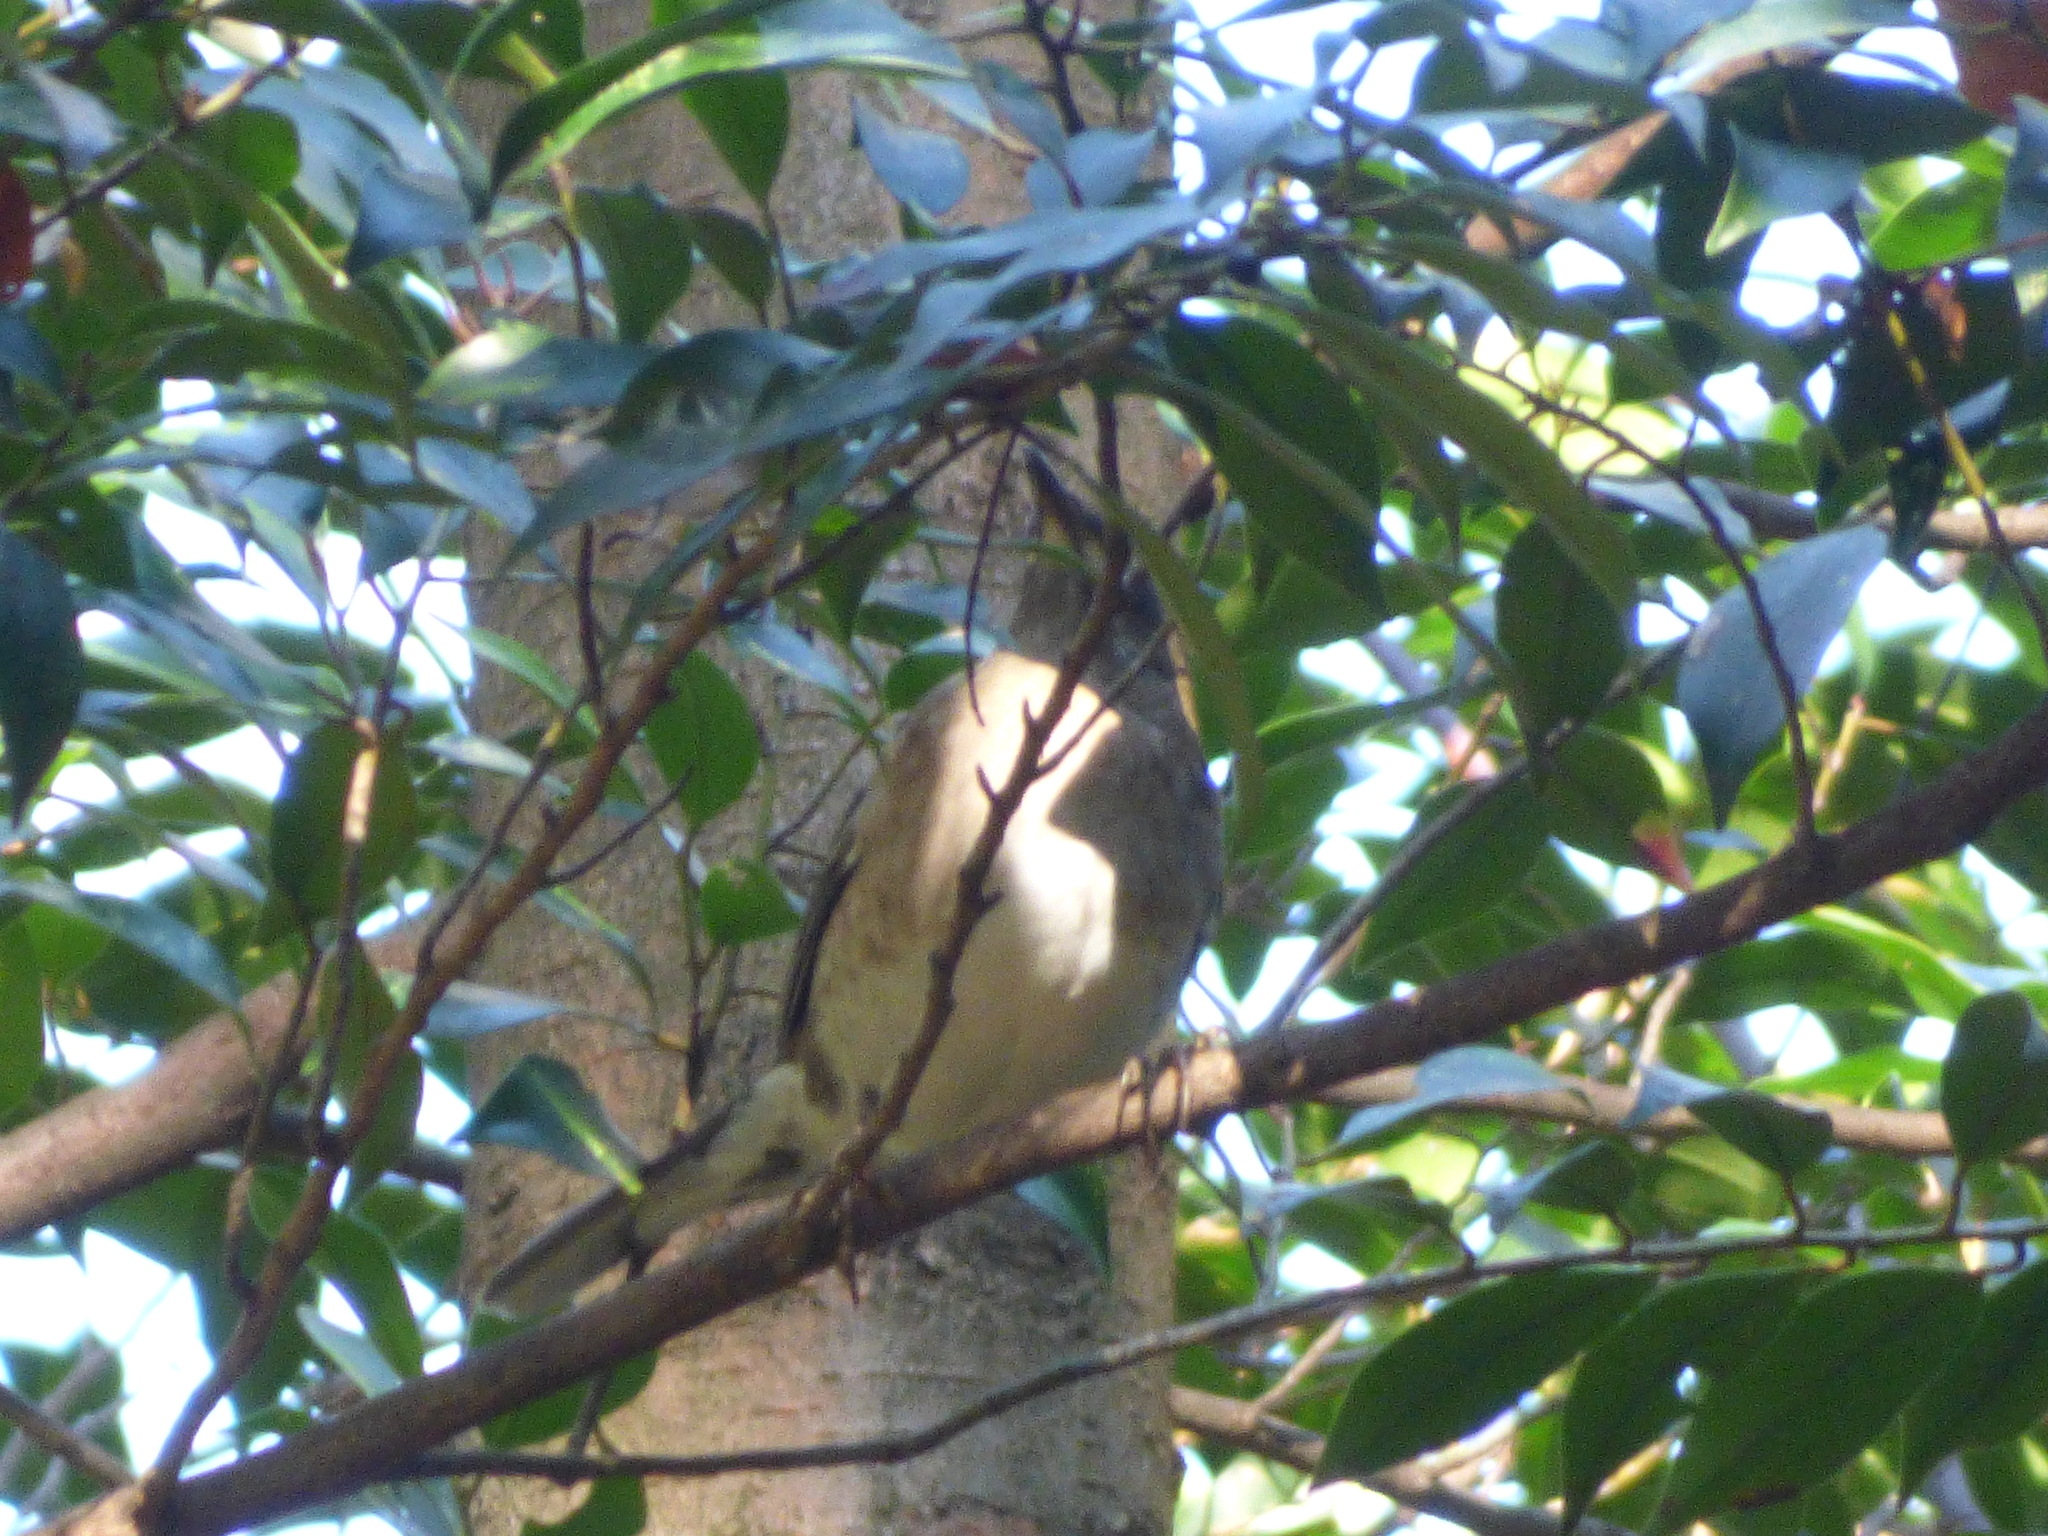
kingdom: Animalia
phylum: Chordata
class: Aves
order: Passeriformes
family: Turdidae
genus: Turdus
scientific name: Turdus pallidus
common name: Pale thrush
